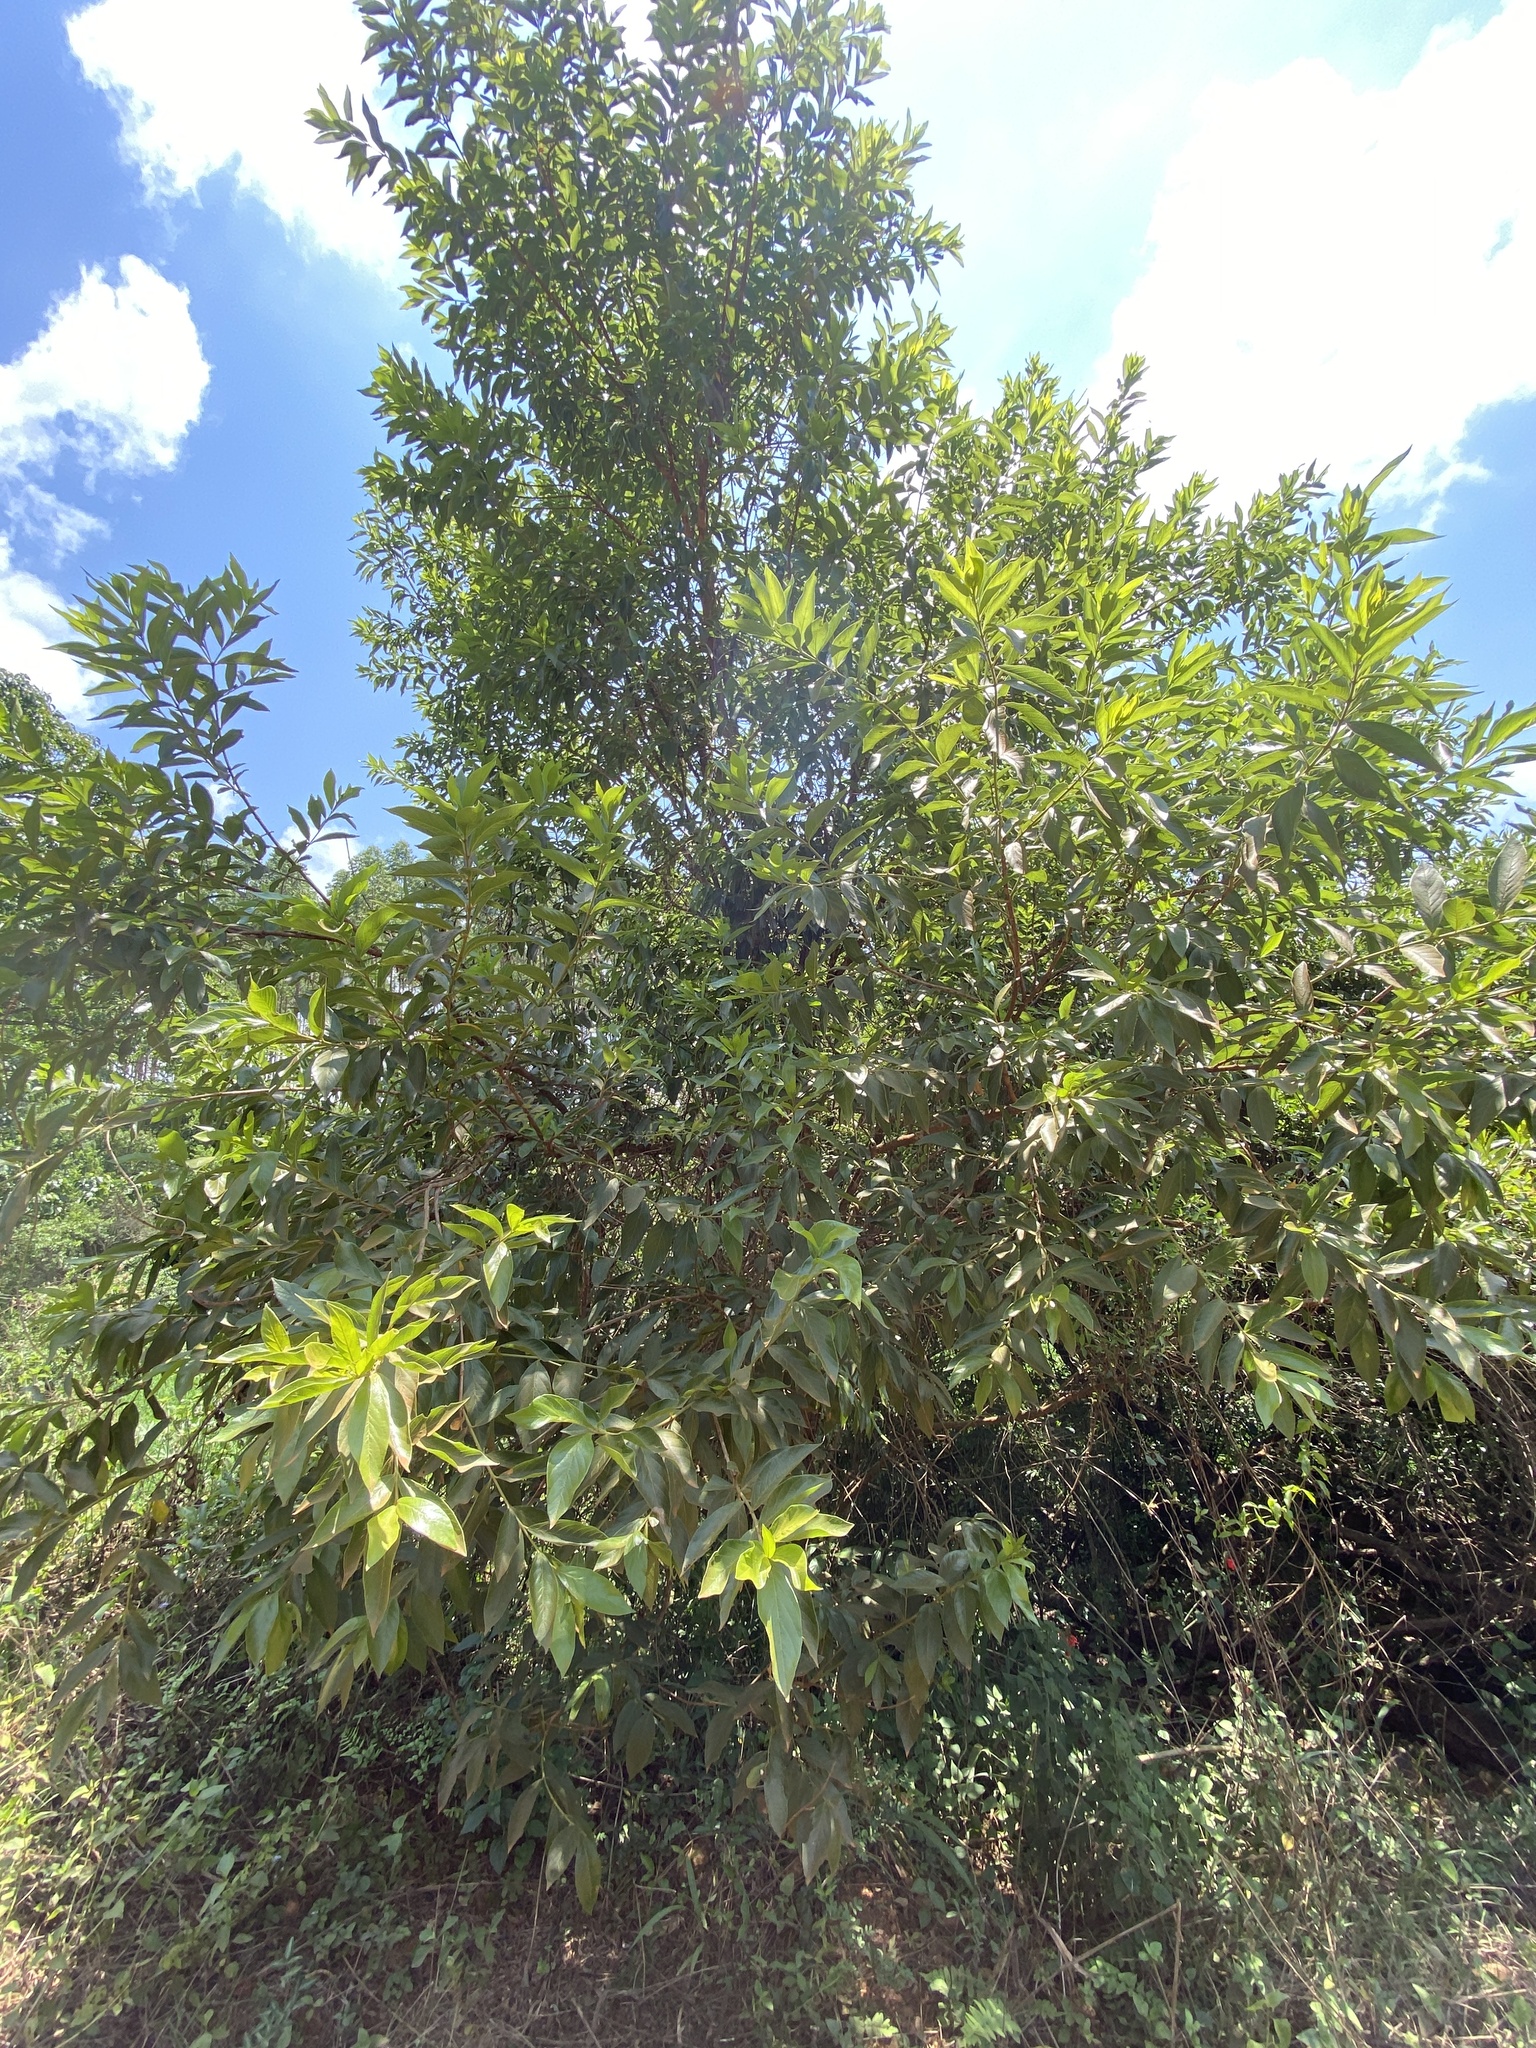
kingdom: Plantae
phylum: Tracheophyta
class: Magnoliopsida
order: Myrtales
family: Combretaceae
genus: Combretum
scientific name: Combretum erythrophyllum
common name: Bush-willow
